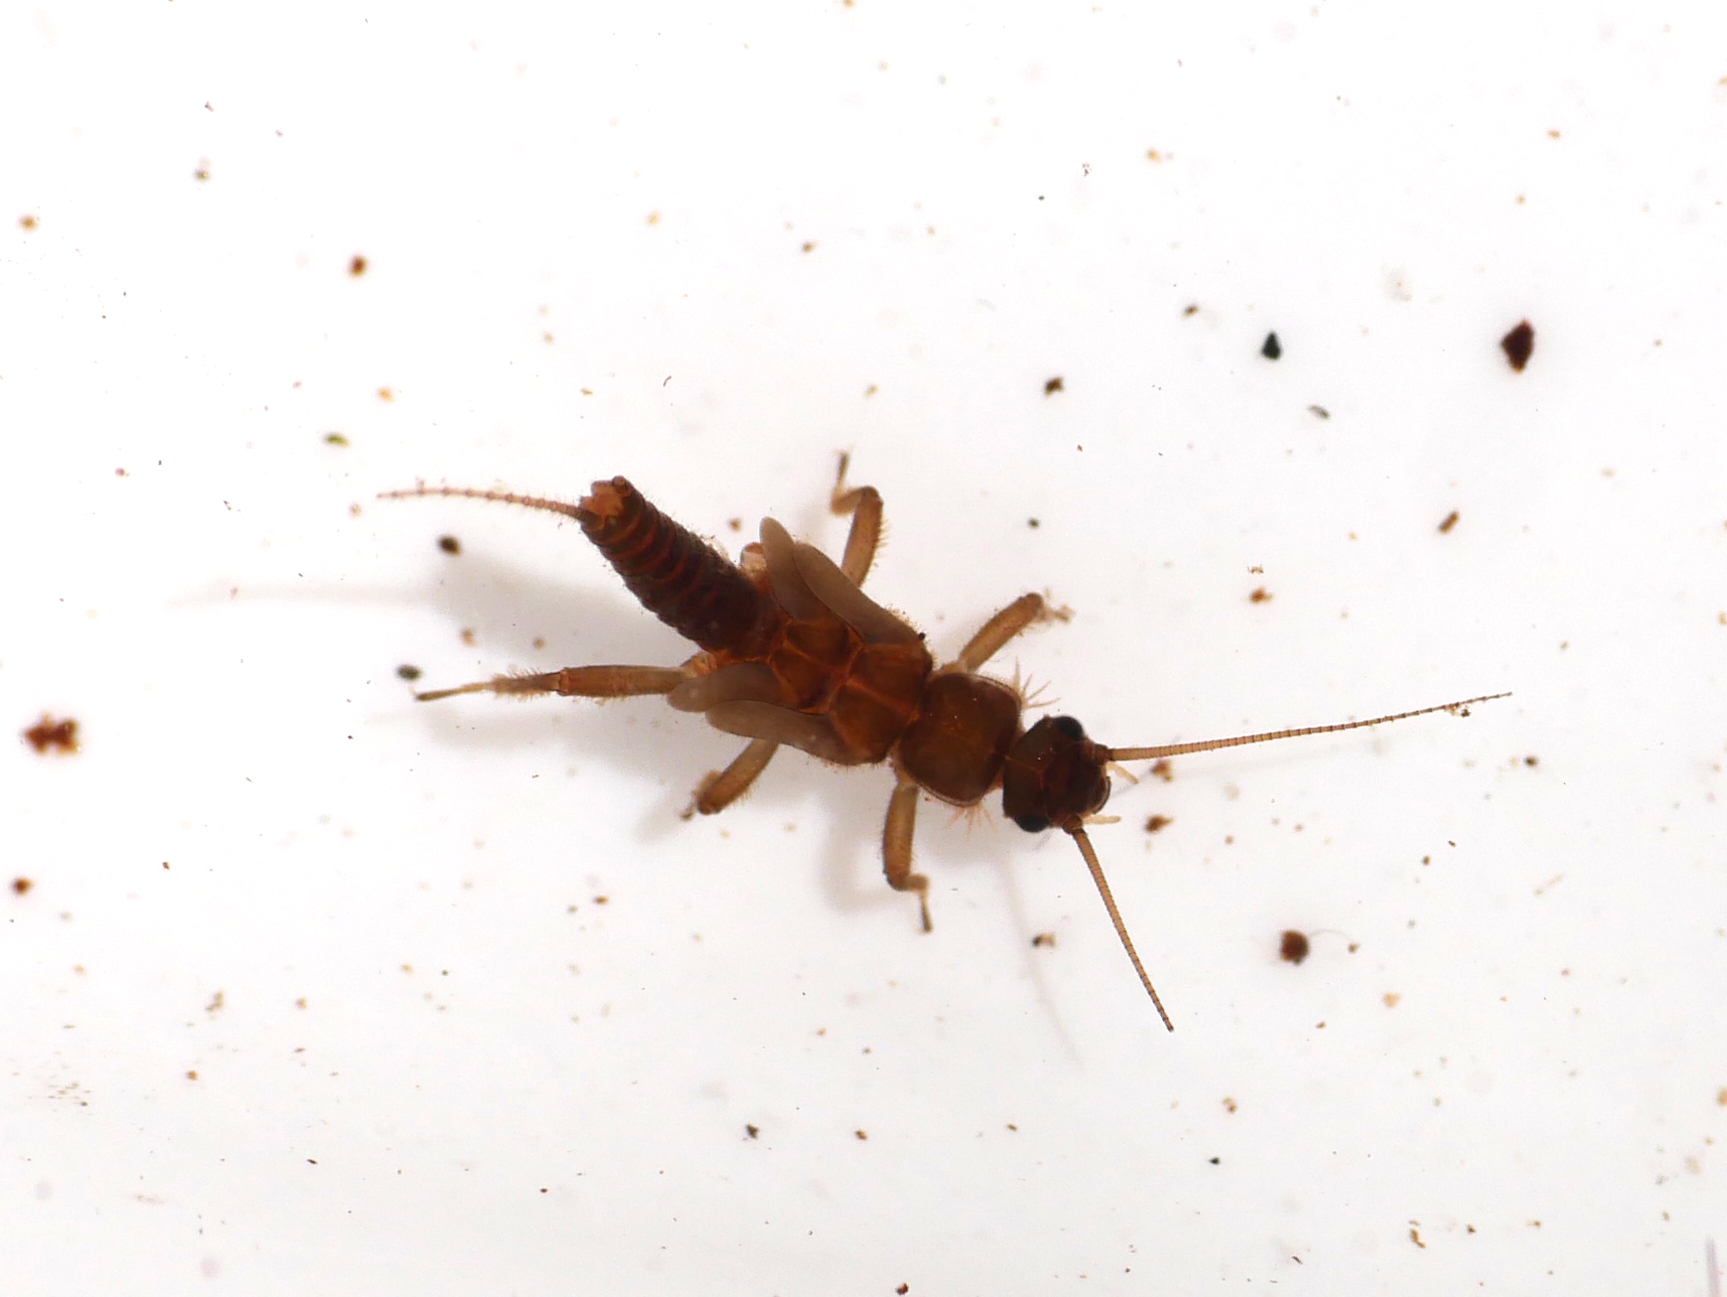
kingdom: Animalia
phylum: Arthropoda
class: Insecta
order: Plecoptera
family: Nemouridae
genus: Amphinemura
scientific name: Amphinemura sulcicollis
